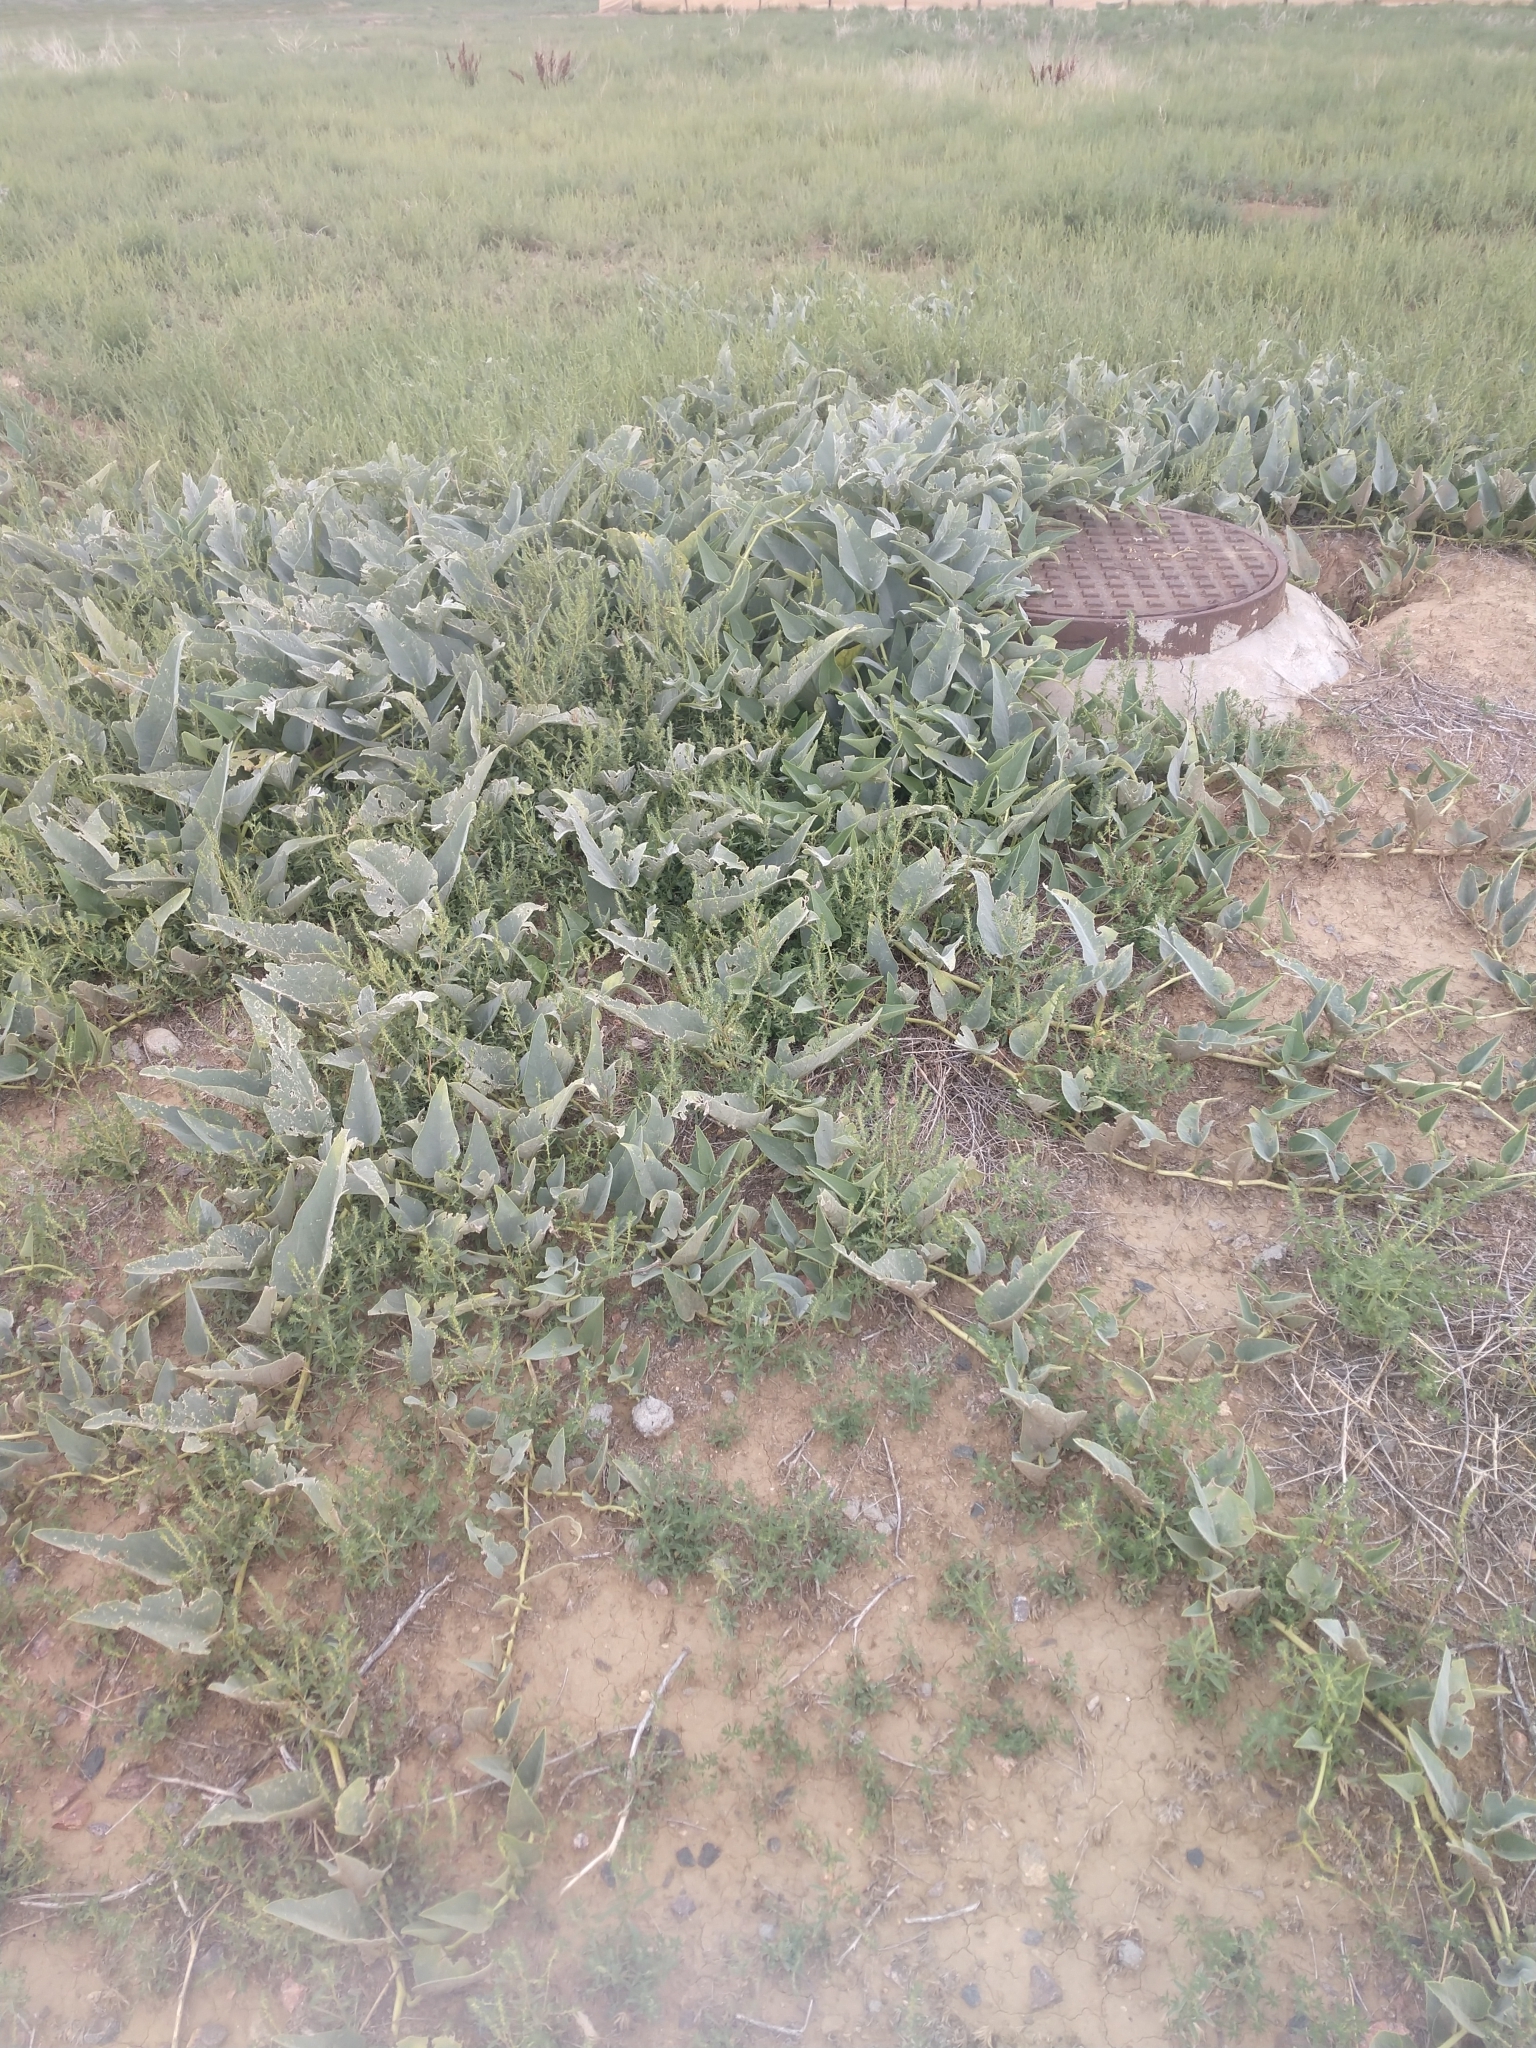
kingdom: Plantae
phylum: Tracheophyta
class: Magnoliopsida
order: Cucurbitales
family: Cucurbitaceae
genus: Cucurbita
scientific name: Cucurbita foetidissima
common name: Buffalo gourd
